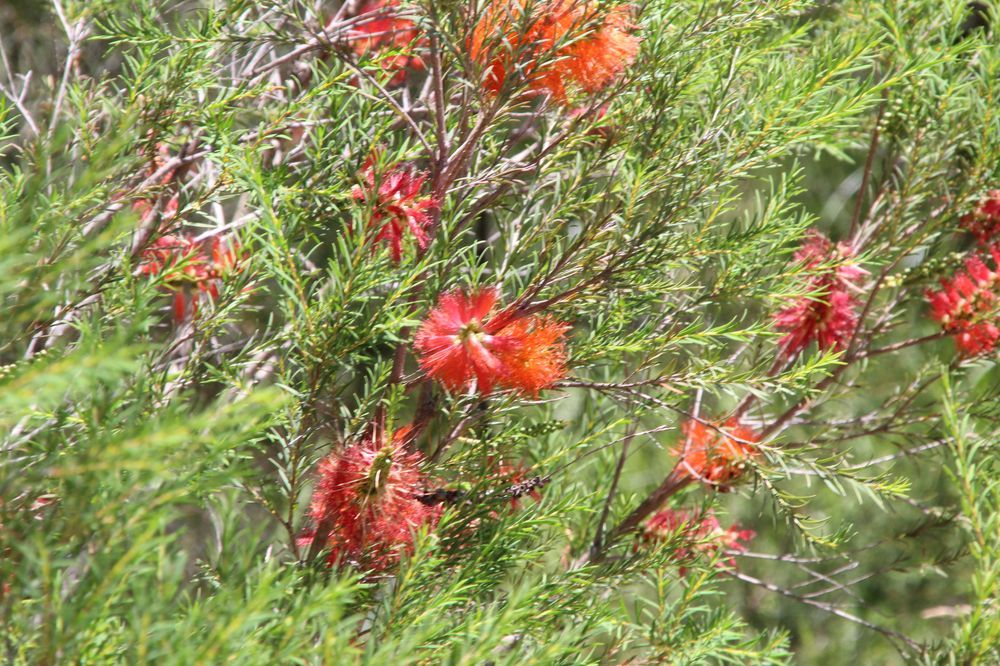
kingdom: Plantae
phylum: Tracheophyta
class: Magnoliopsida
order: Myrtales
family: Myrtaceae
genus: Melaleuca
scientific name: Melaleuca lateritia
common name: Robin red-breast
